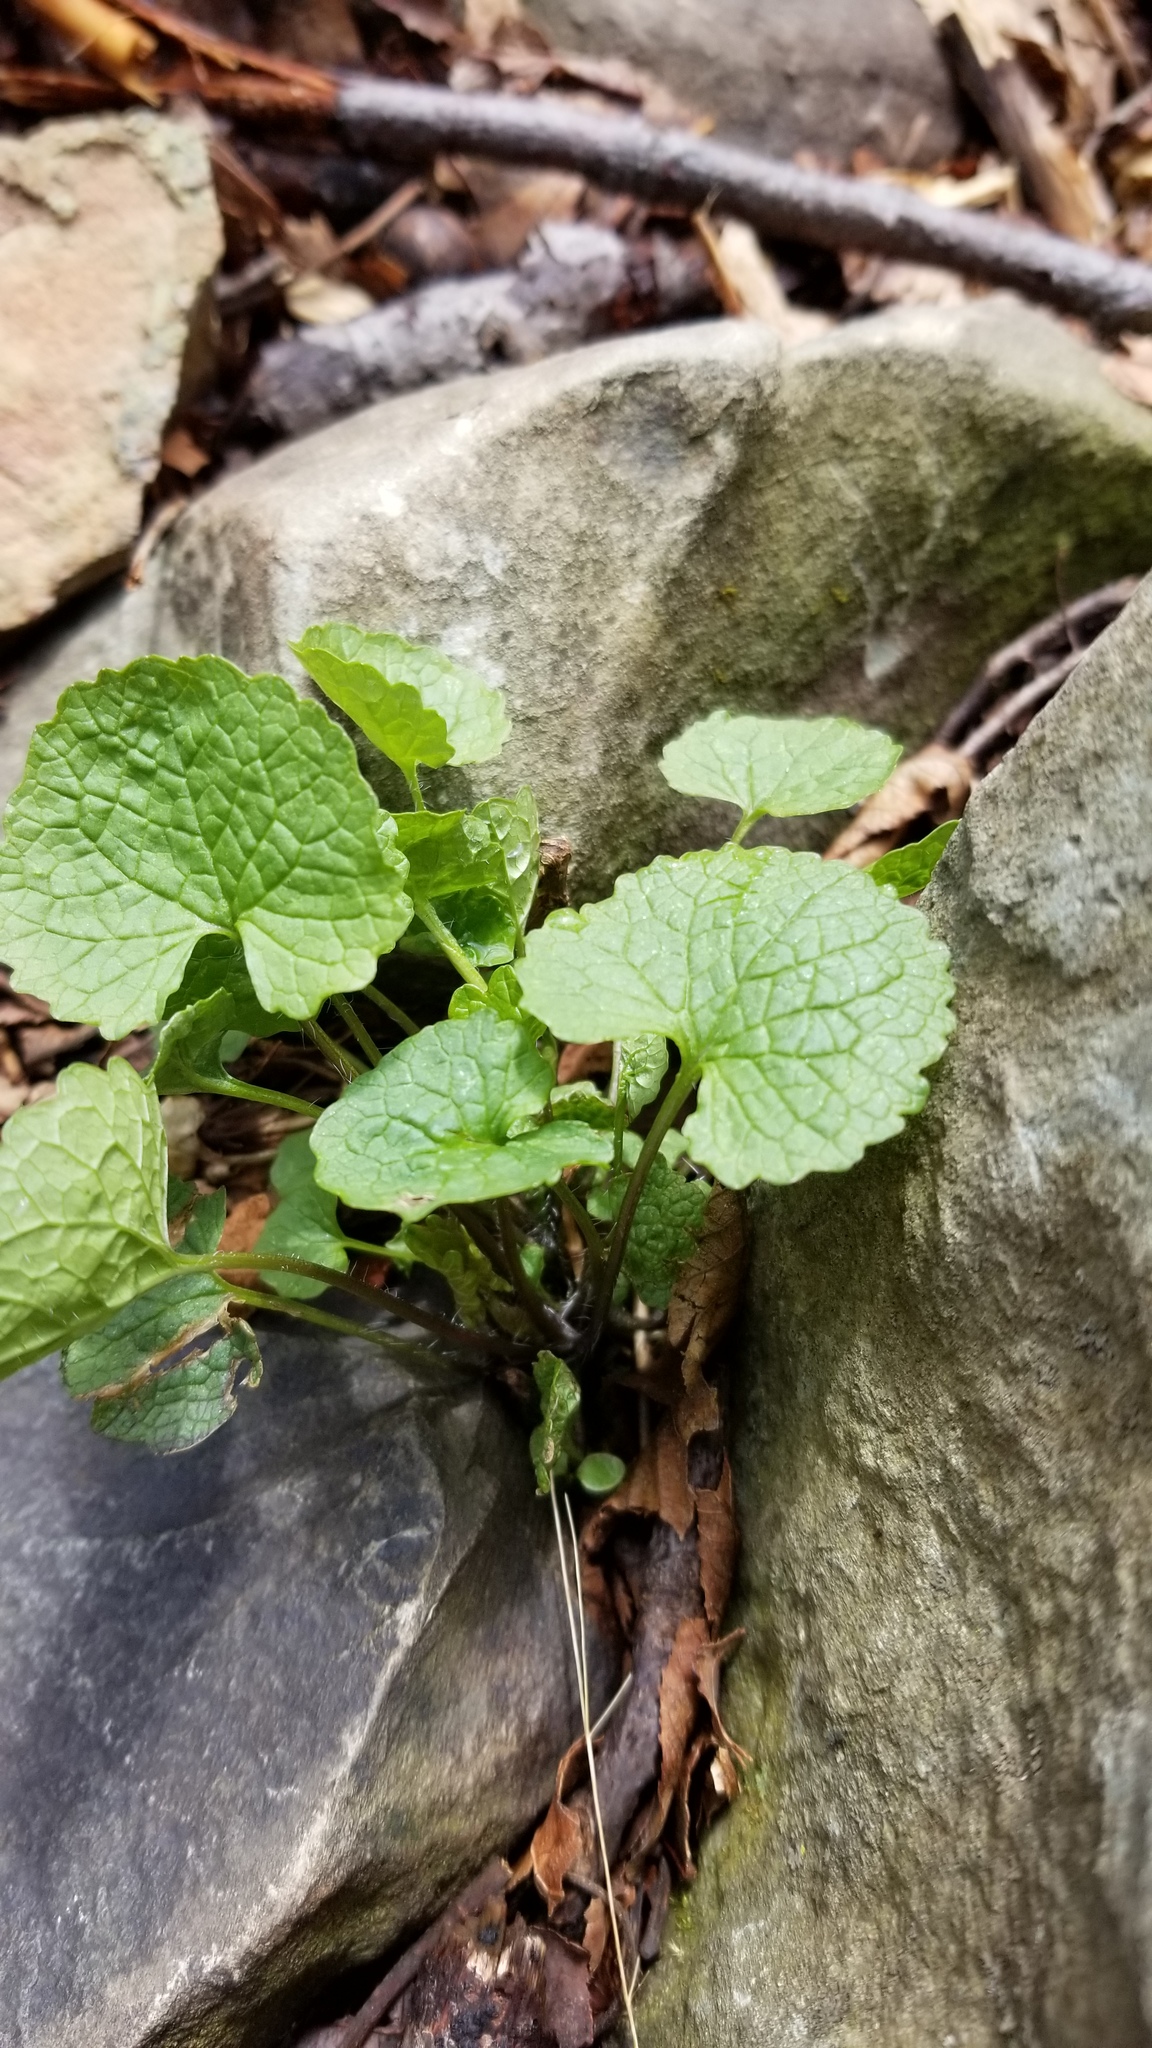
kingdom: Plantae
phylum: Tracheophyta
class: Magnoliopsida
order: Brassicales
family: Brassicaceae
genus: Alliaria
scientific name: Alliaria petiolata
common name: Garlic mustard
